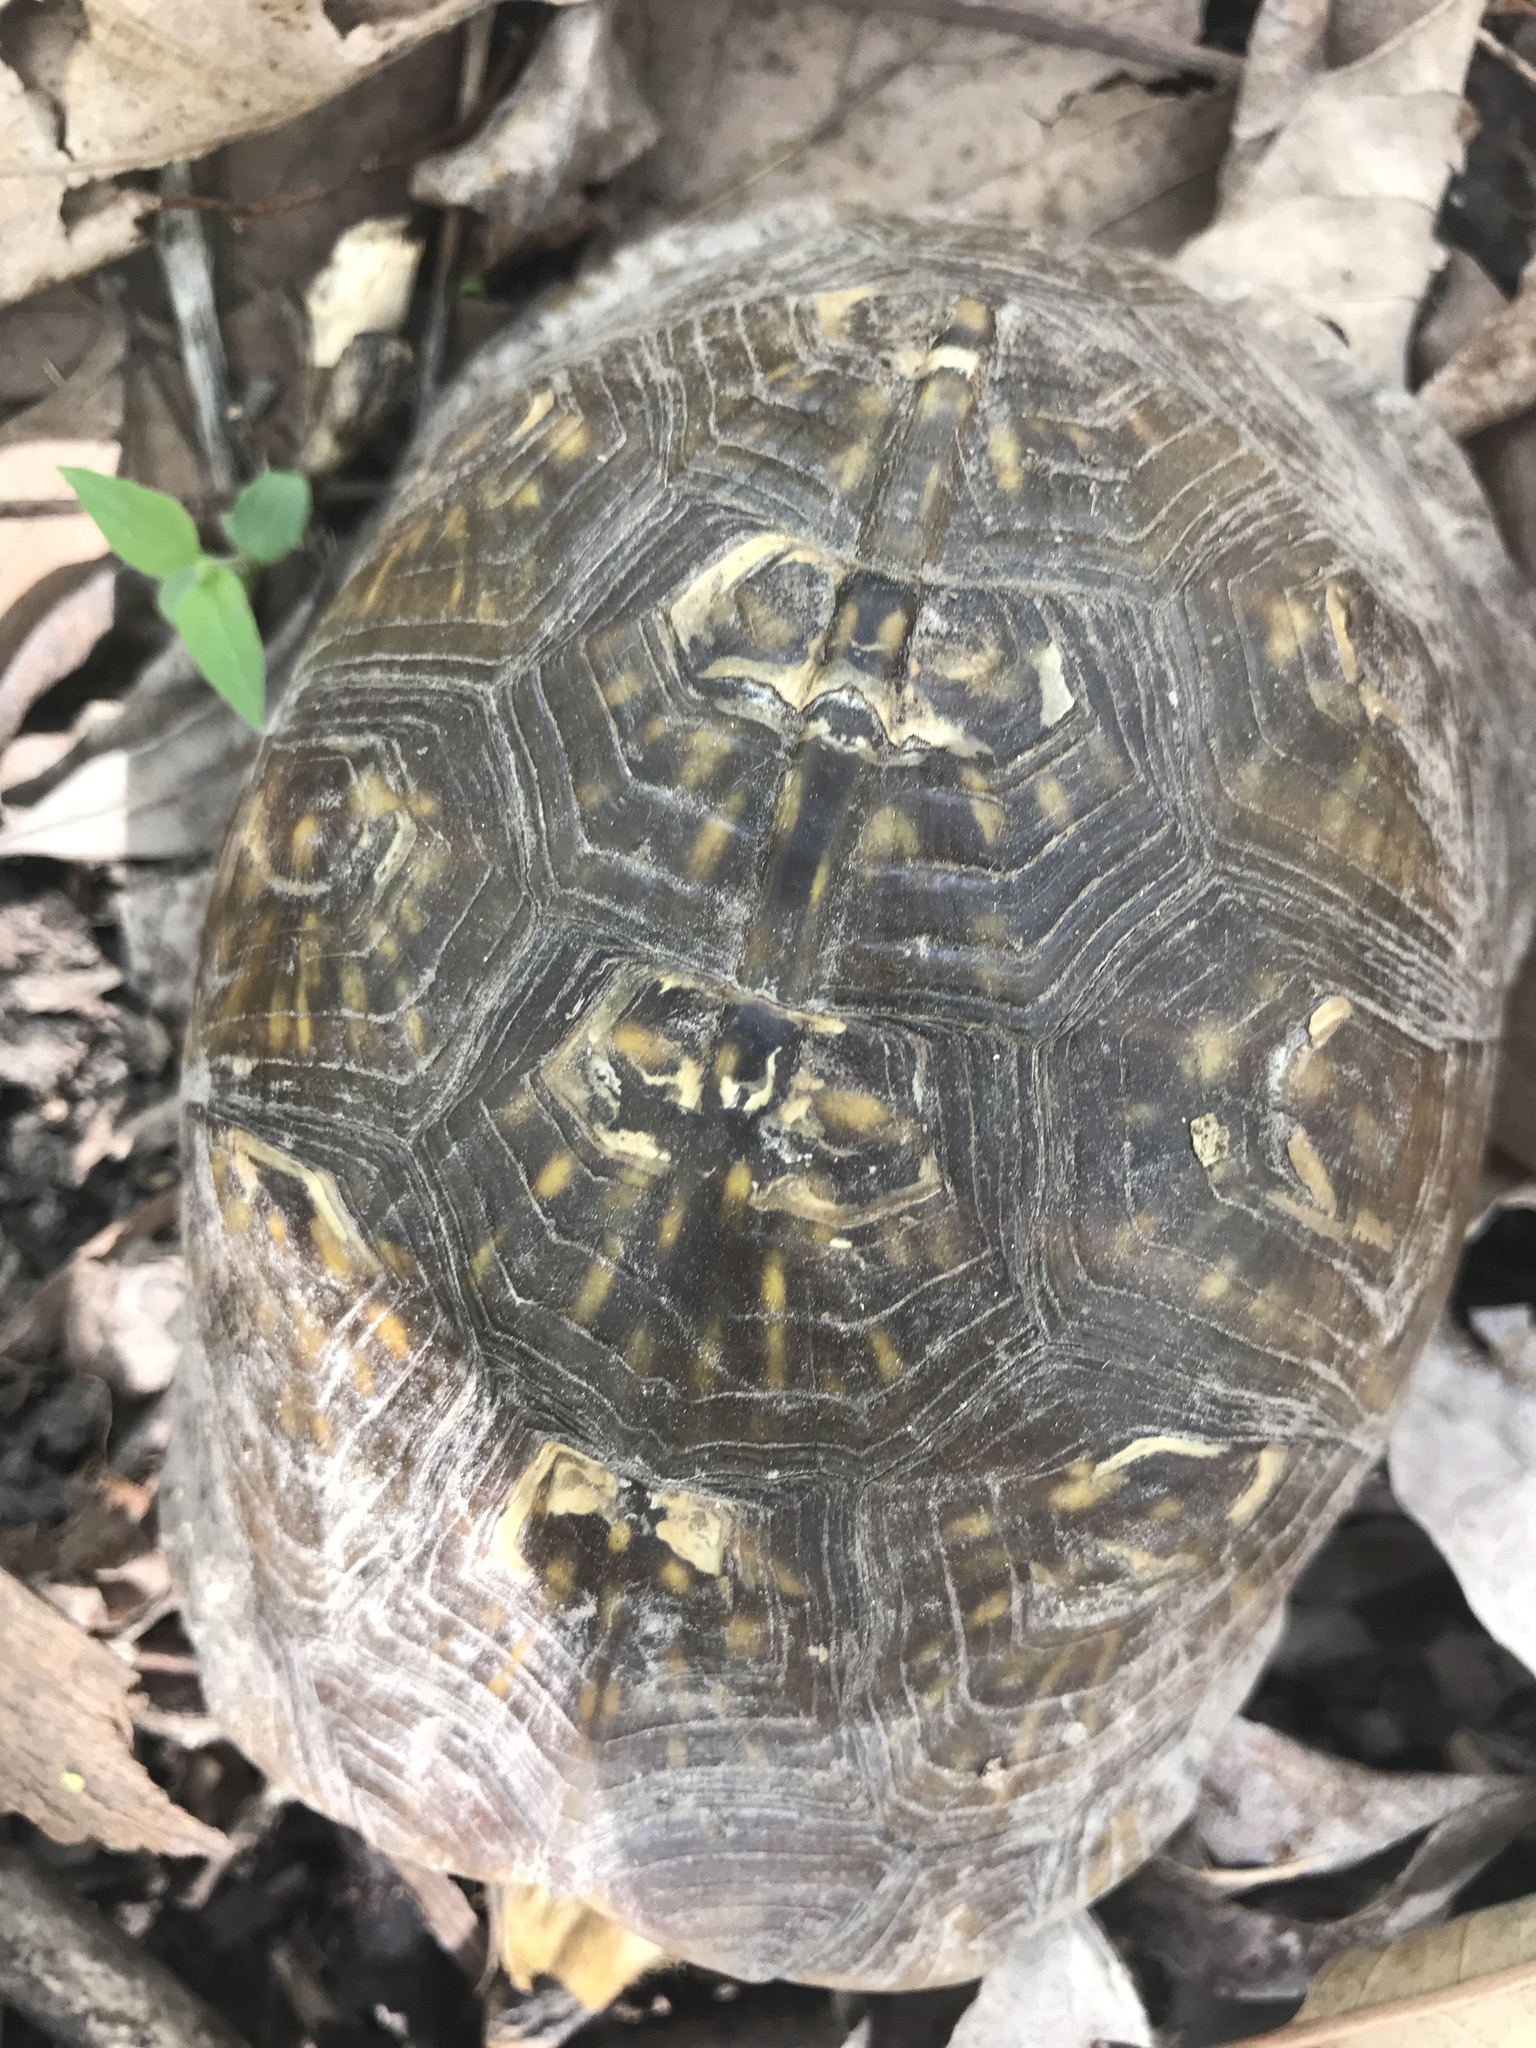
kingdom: Animalia
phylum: Chordata
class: Testudines
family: Emydidae
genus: Terrapene
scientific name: Terrapene carolina
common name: Common box turtle
